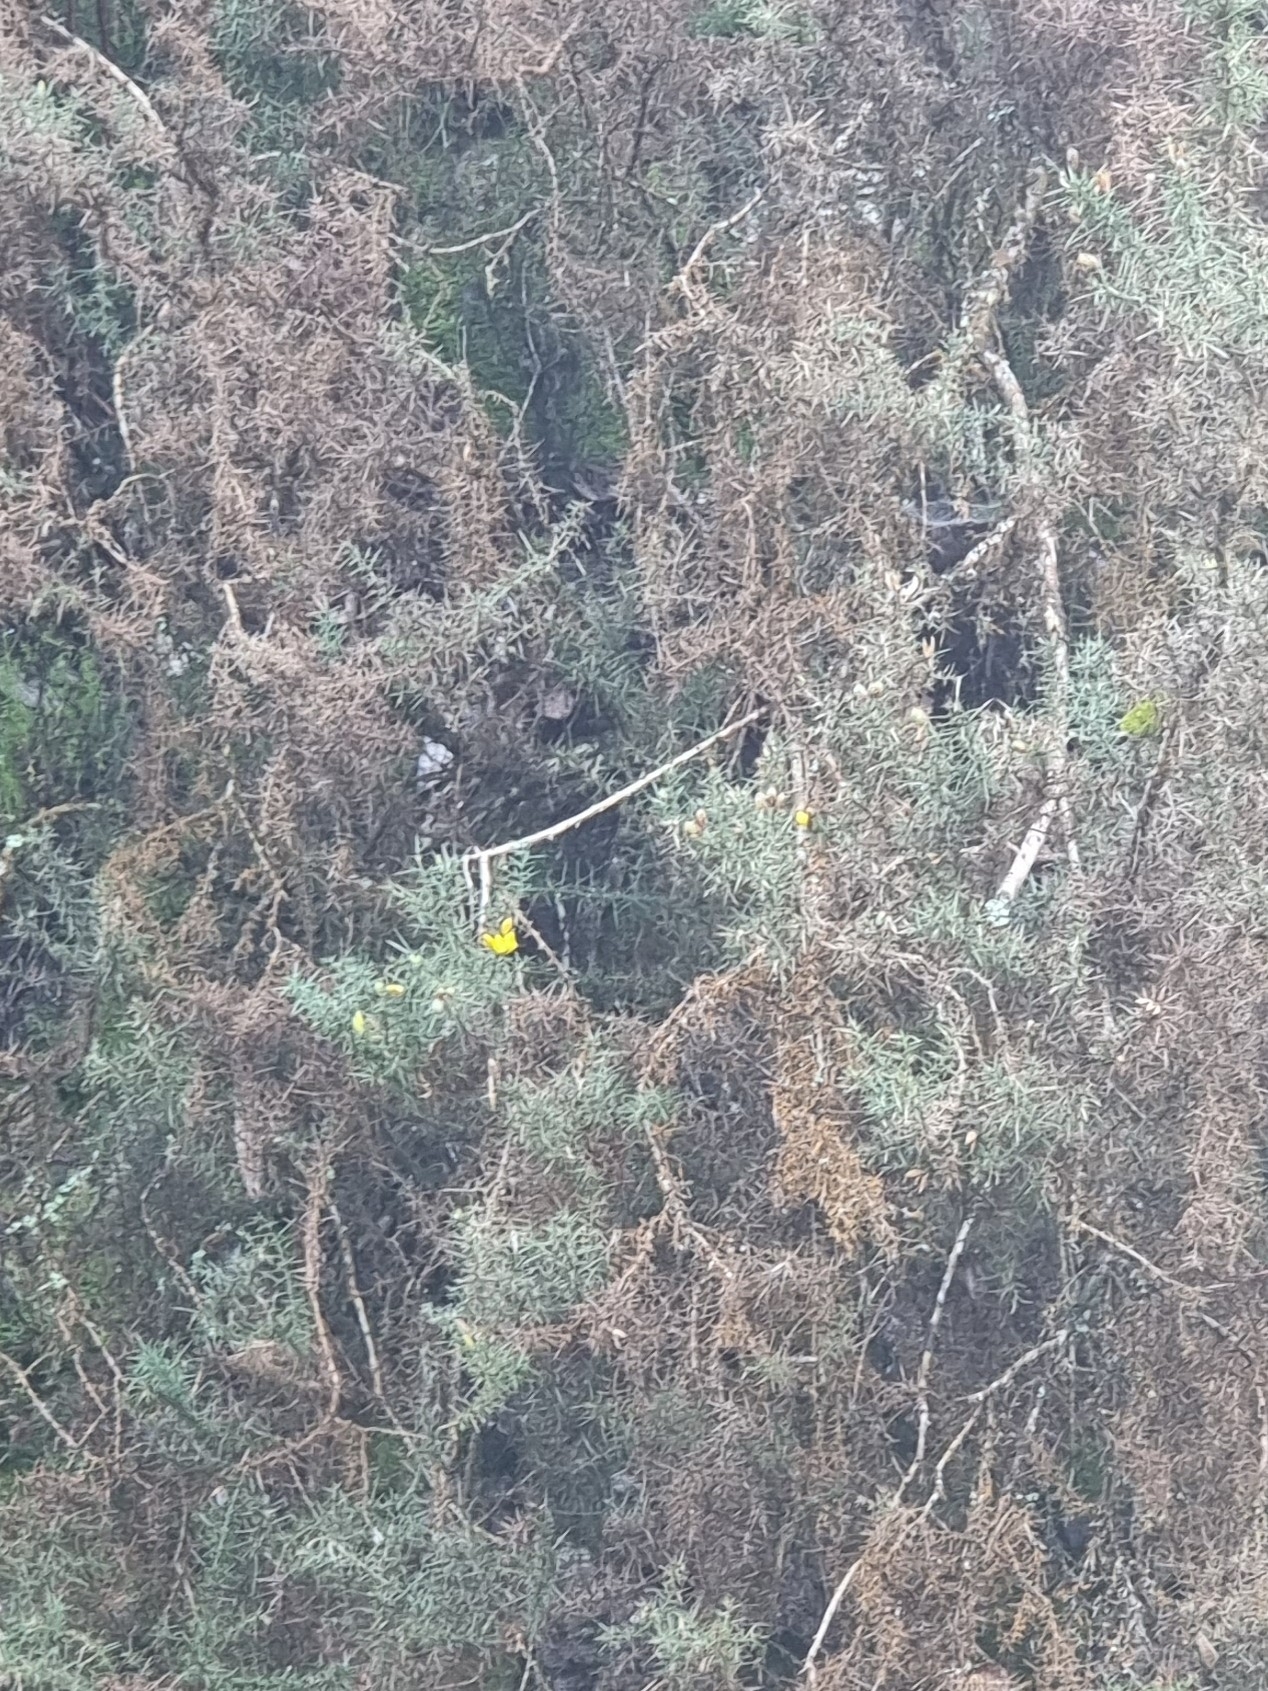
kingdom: Plantae
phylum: Tracheophyta
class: Magnoliopsida
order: Fabales
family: Fabaceae
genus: Ulex
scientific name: Ulex europaeus
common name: Common gorse
